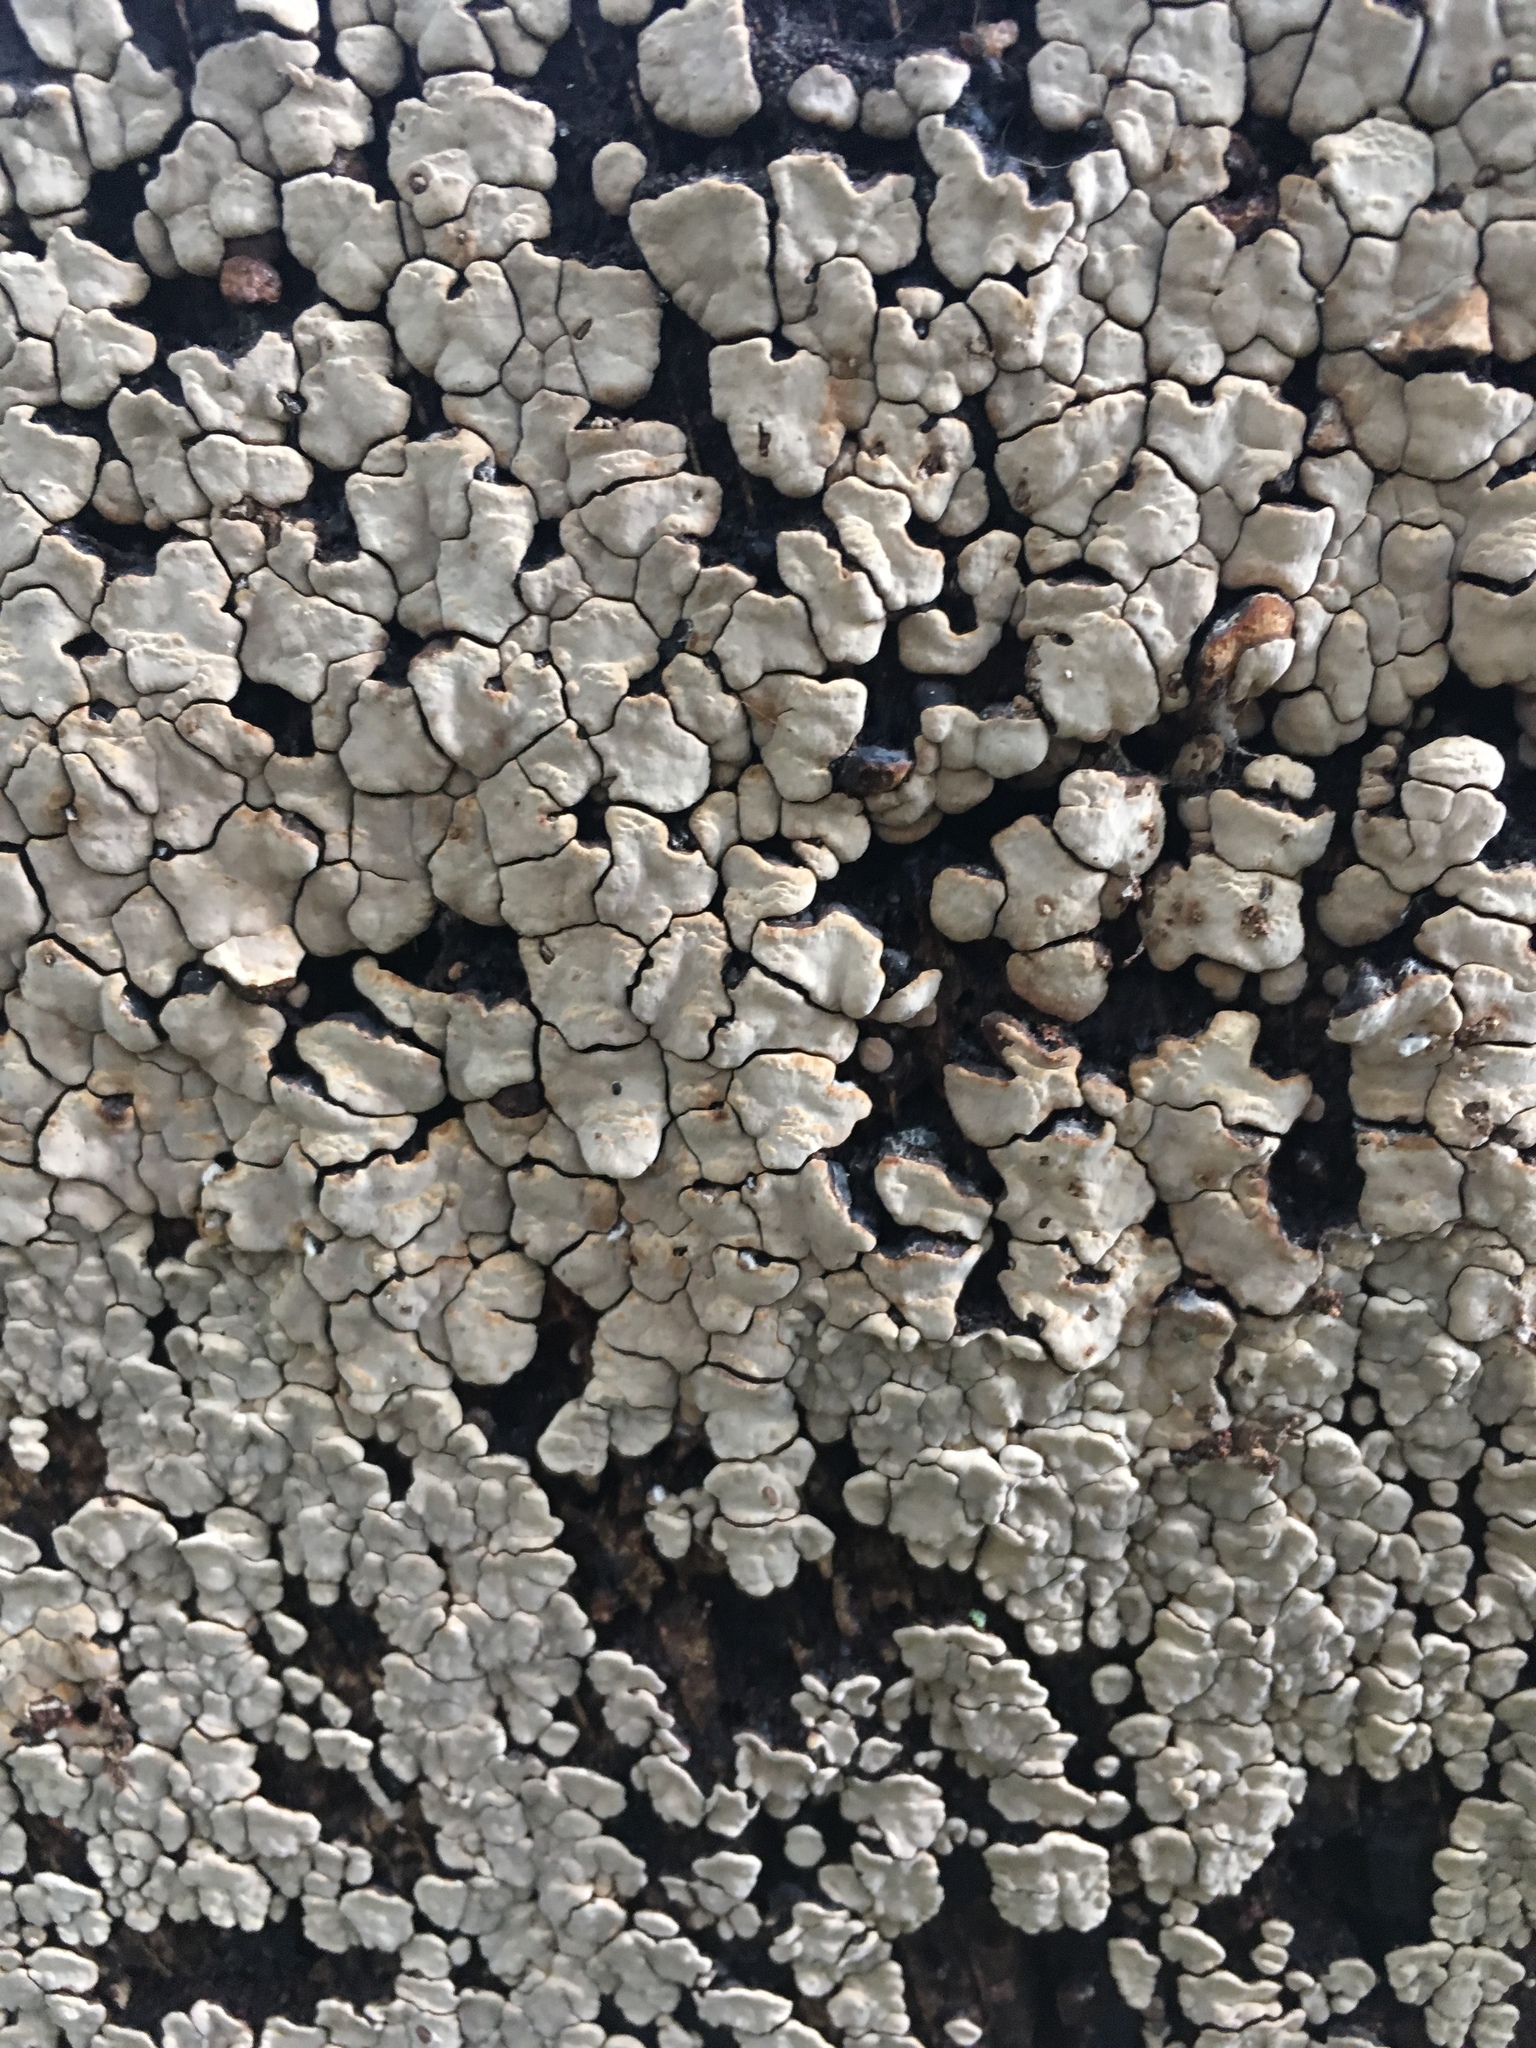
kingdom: Fungi
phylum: Basidiomycota
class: Agaricomycetes
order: Russulales
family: Stereaceae
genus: Xylobolus
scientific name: Xylobolus frustulatus
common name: Ceramic parchment
